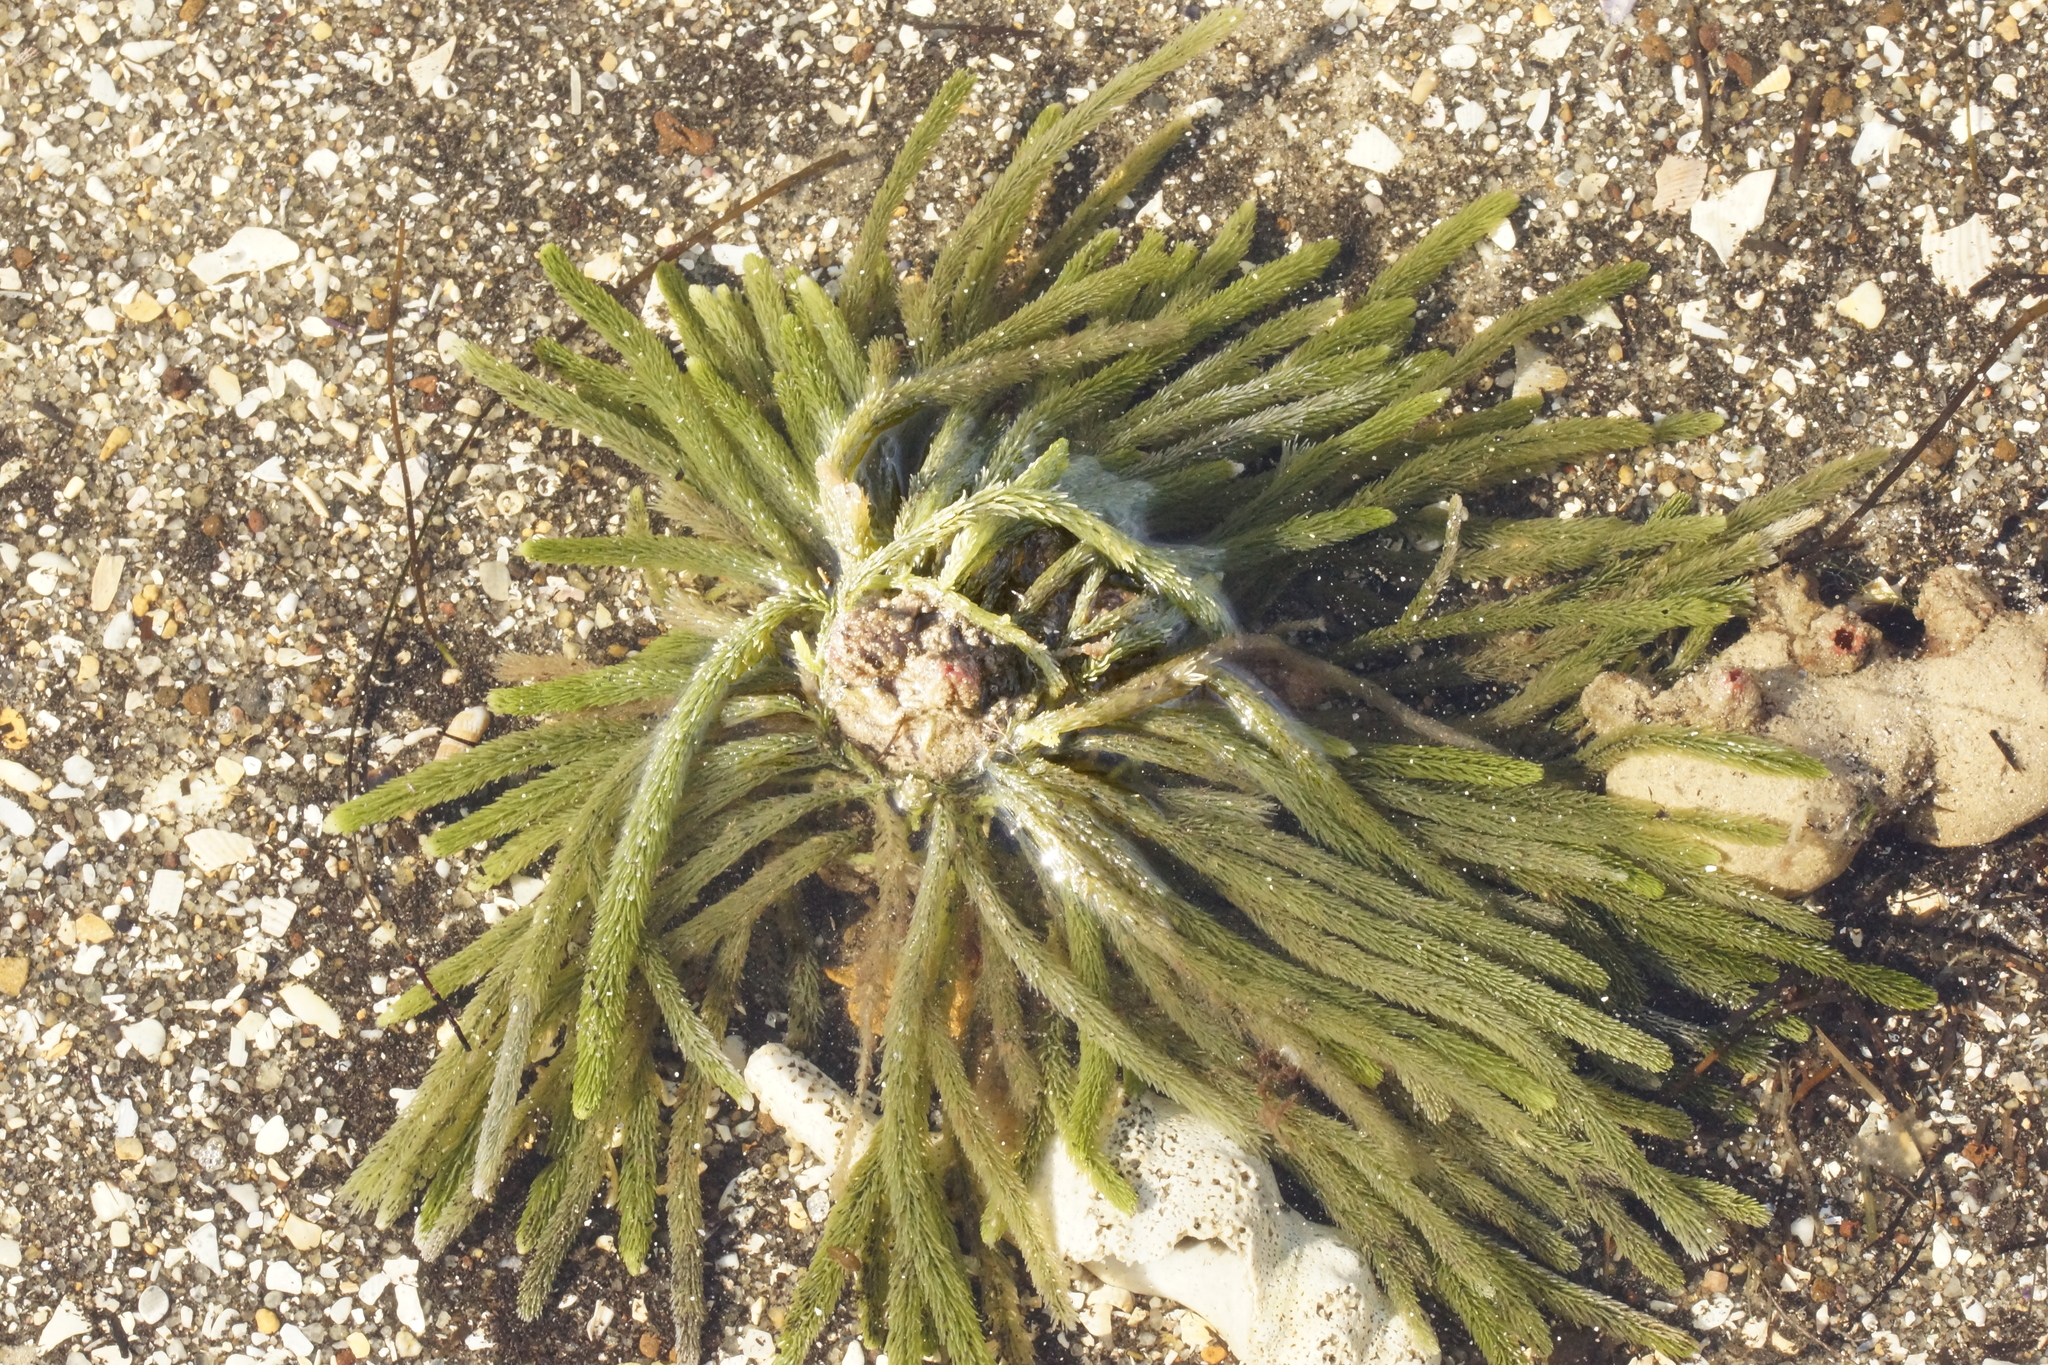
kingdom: Plantae
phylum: Chlorophyta
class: Ulvophyceae
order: Bryopsidales
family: Caulerpaceae
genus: Caulerpa
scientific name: Caulerpa brownii
